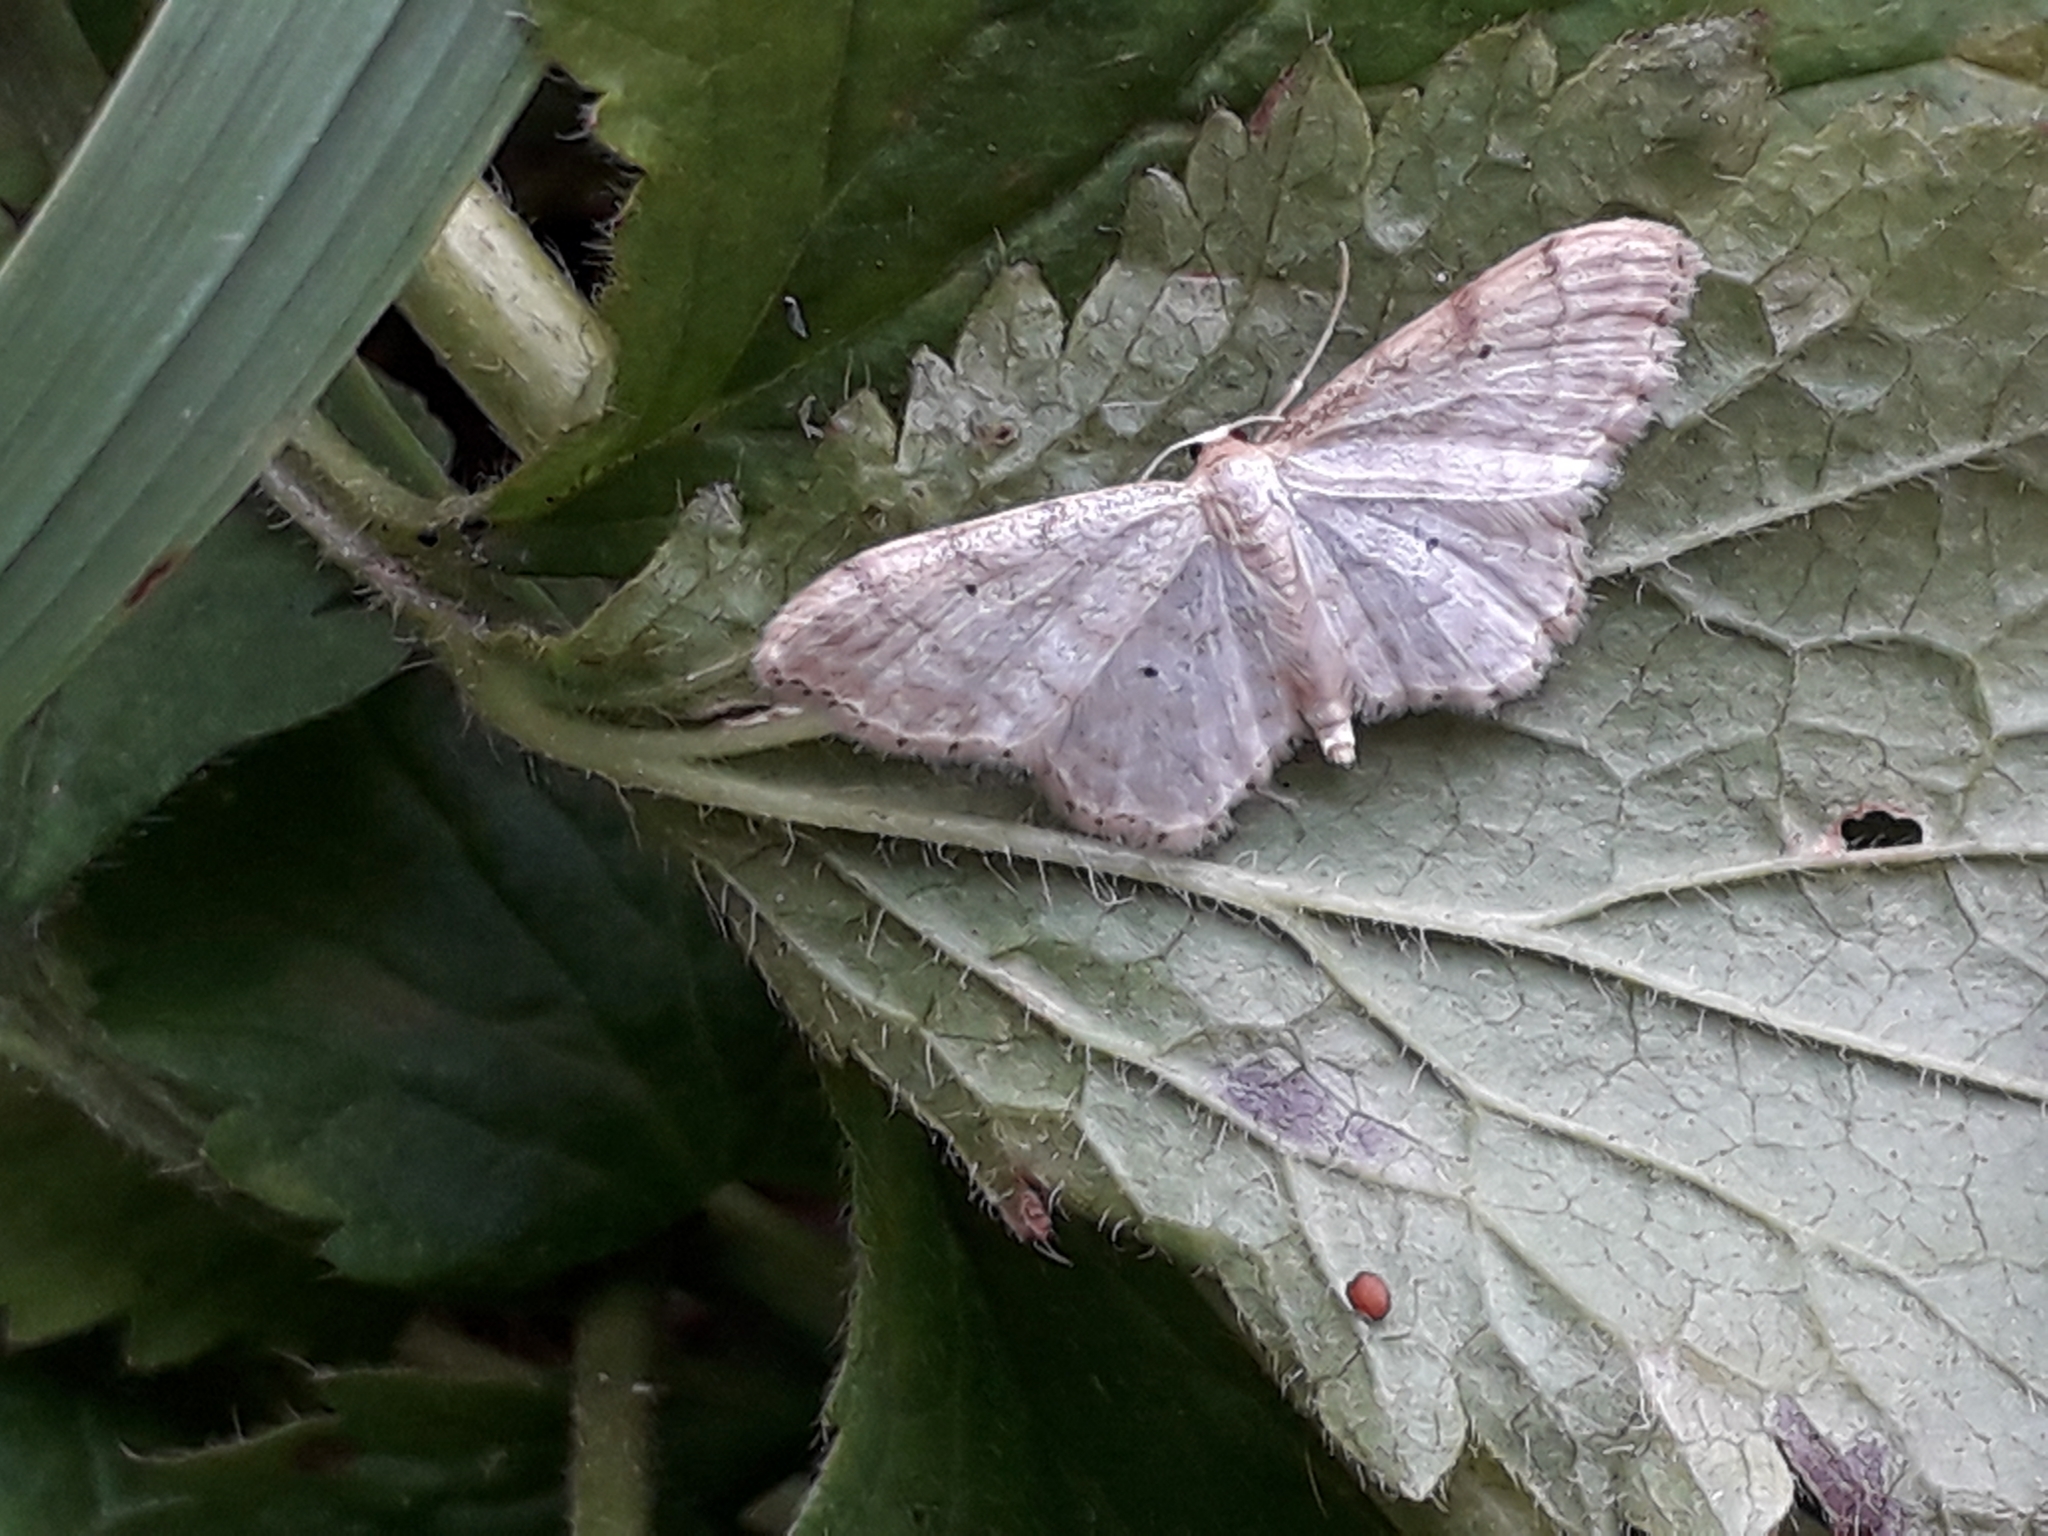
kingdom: Animalia
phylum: Arthropoda
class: Insecta
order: Lepidoptera
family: Geometridae
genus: Idaea
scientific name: Idaea fuscovenosa
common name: Dwarf cream wave
